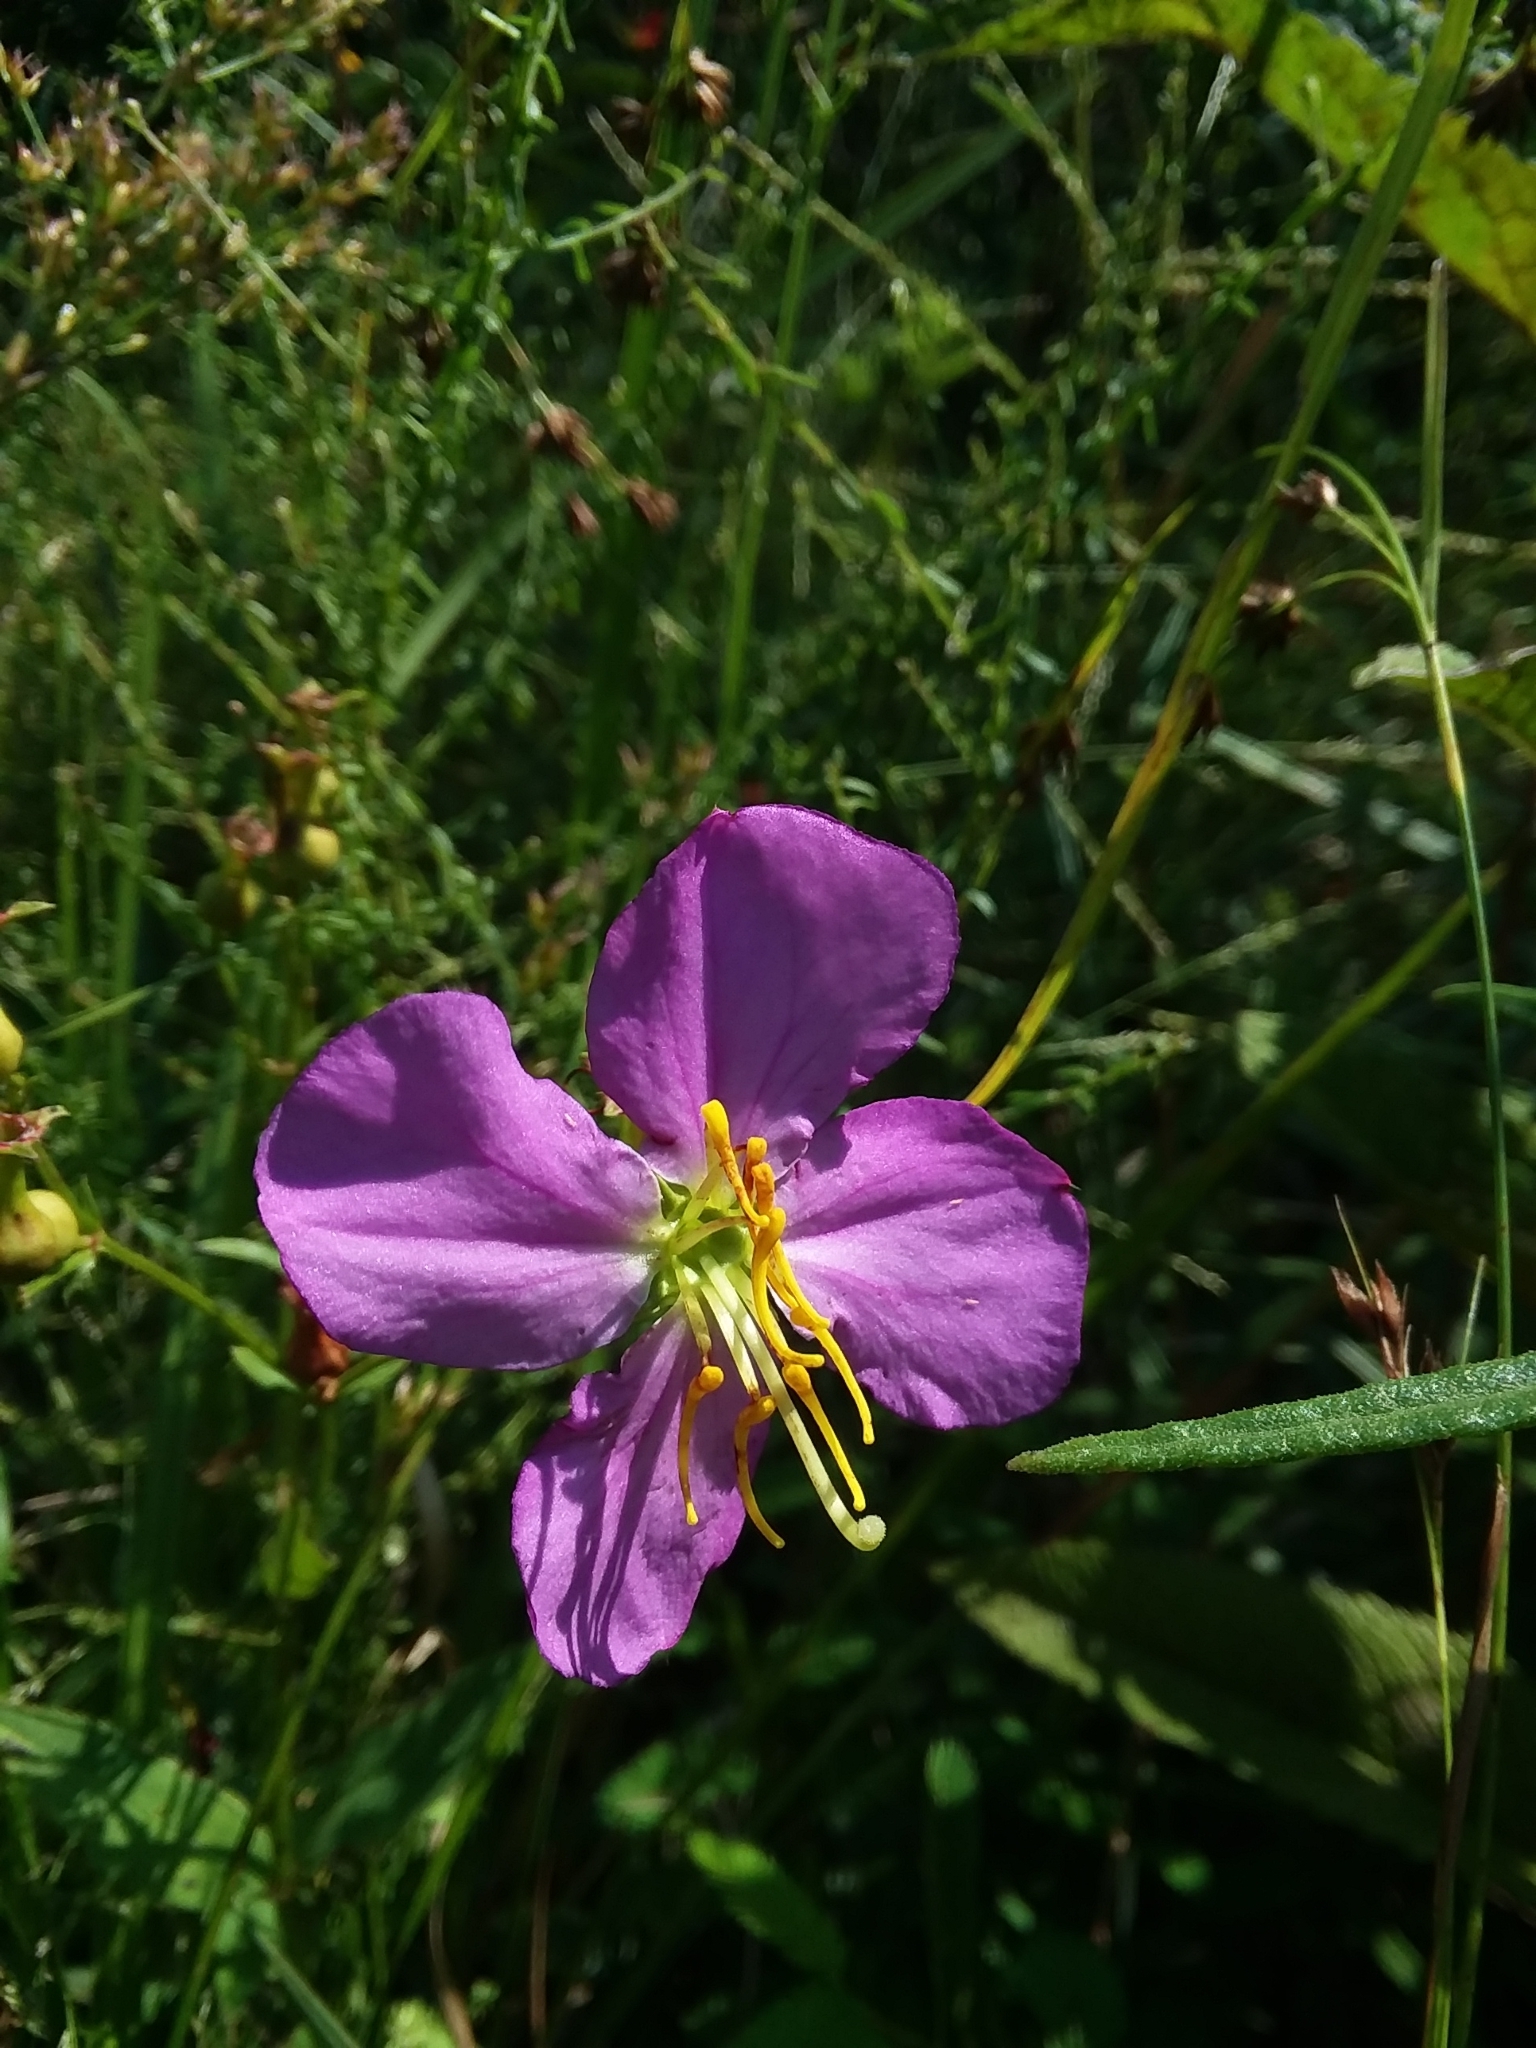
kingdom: Plantae
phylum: Tracheophyta
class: Magnoliopsida
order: Myrtales
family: Melastomataceae
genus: Rhexia
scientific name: Rhexia nashii
